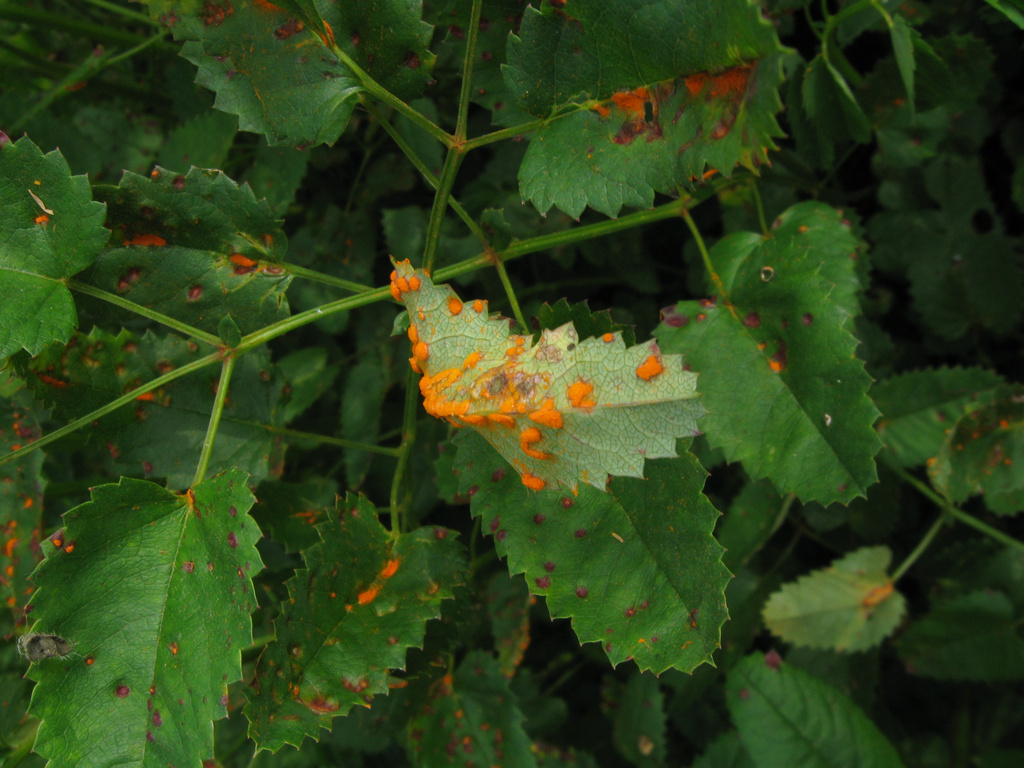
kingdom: Fungi
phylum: Basidiomycota
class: Pucciniomycetes
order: Pucciniales
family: Phragmidiaceae
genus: Xenodochus
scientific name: Xenodochus carbonarius
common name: Great burnet rust
